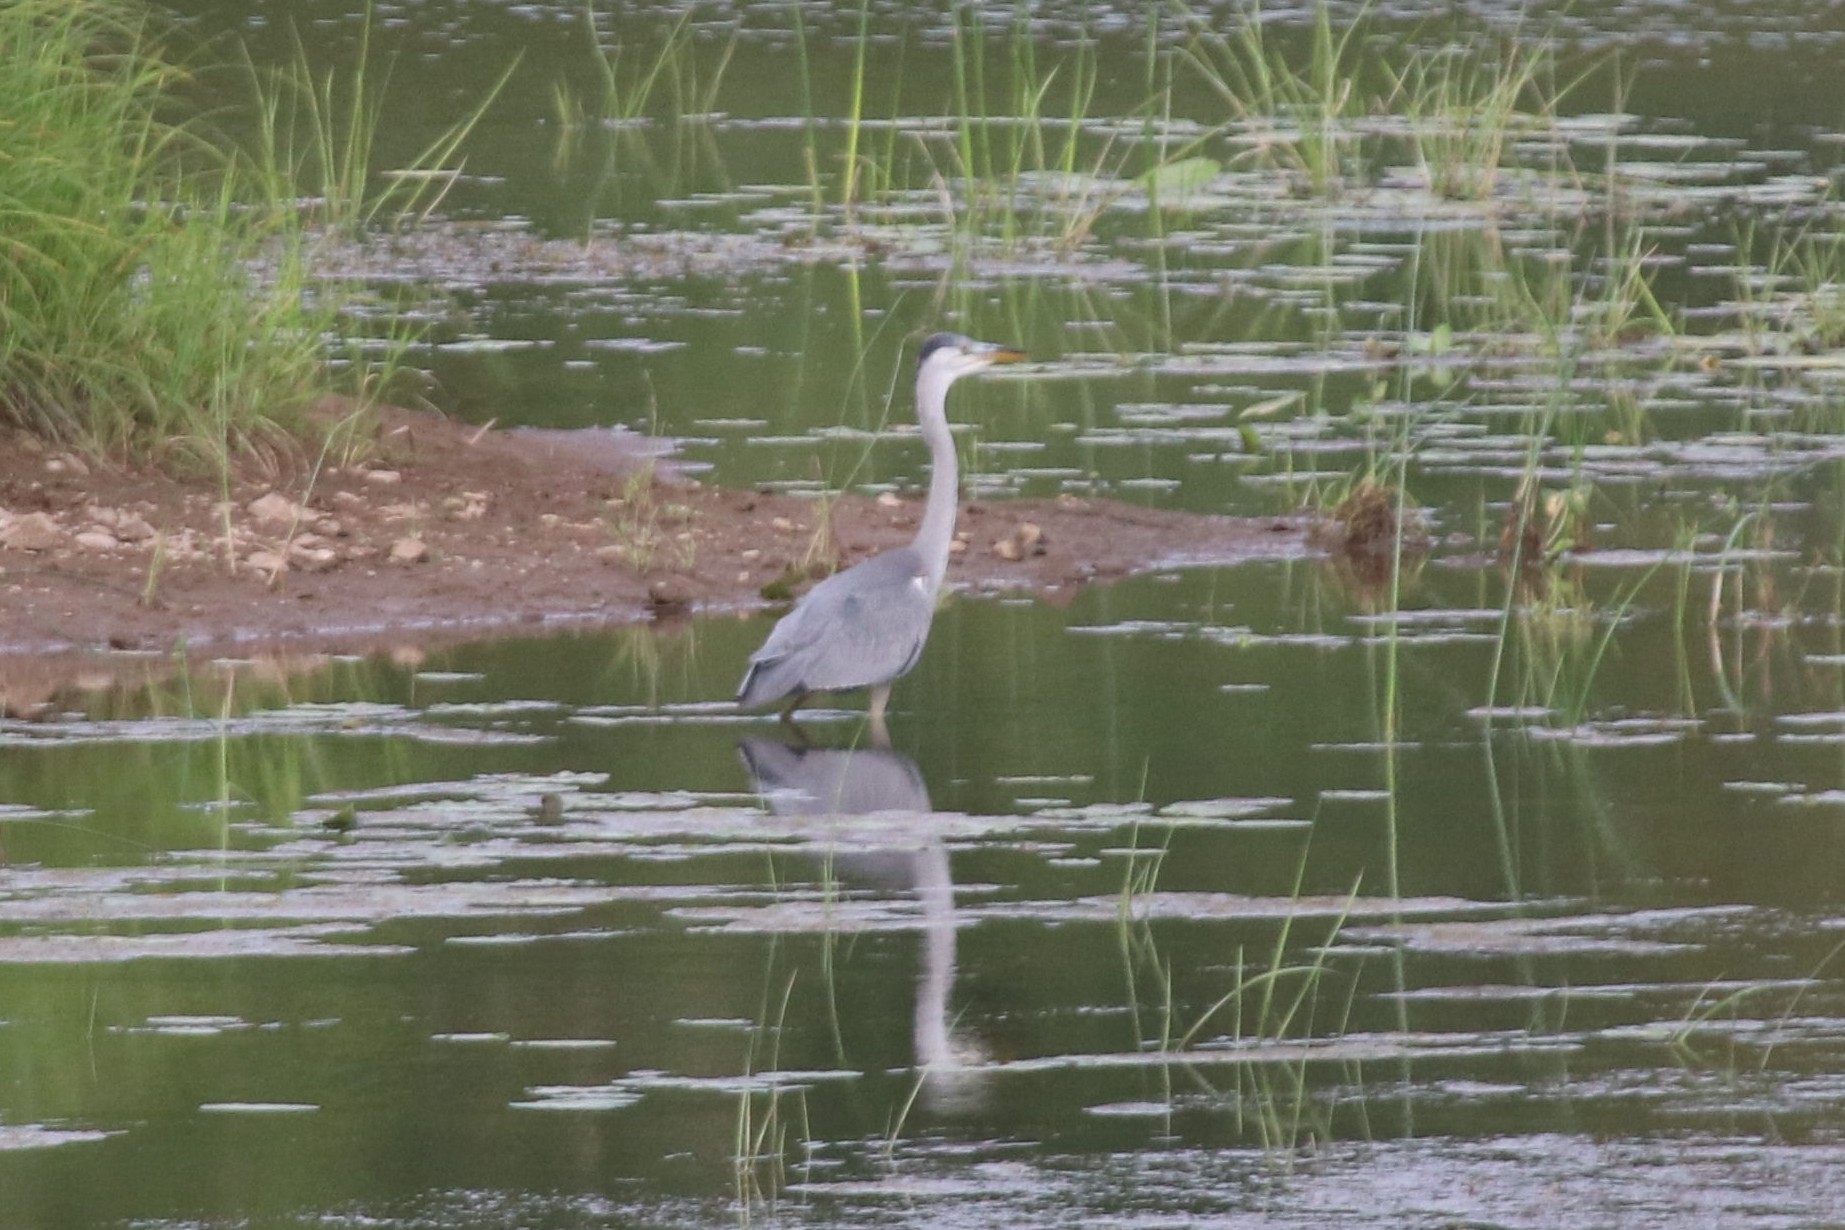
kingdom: Animalia
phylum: Chordata
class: Aves
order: Pelecaniformes
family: Ardeidae
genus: Ardea
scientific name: Ardea cinerea
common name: Grey heron
